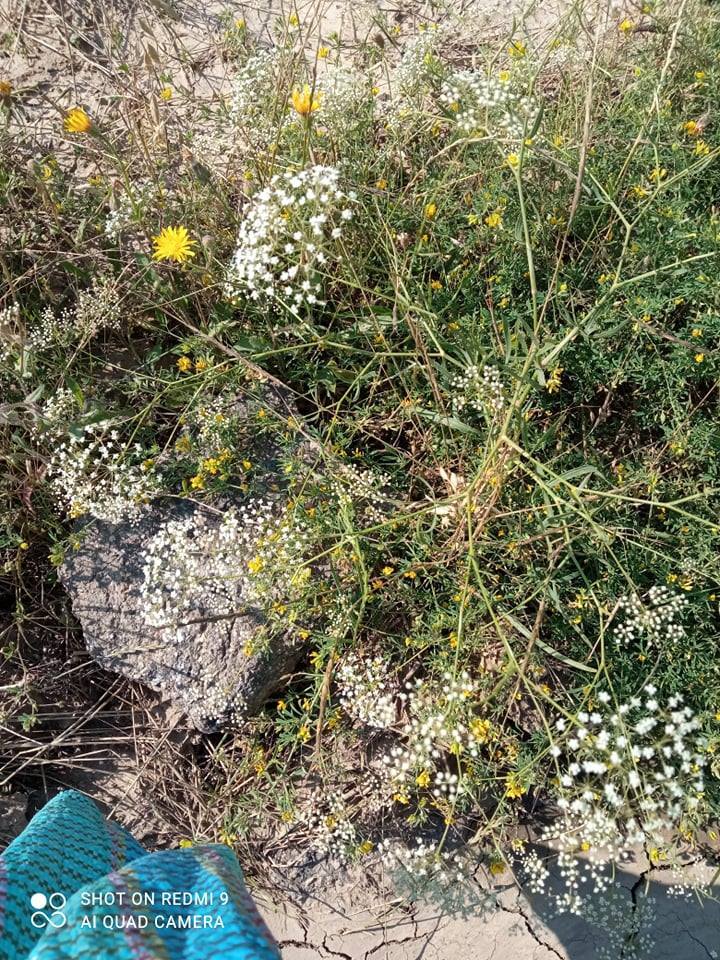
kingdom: Plantae
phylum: Tracheophyta
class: Magnoliopsida
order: Apiales
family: Apiaceae
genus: Falcaria
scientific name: Falcaria vulgaris
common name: Longleaf
